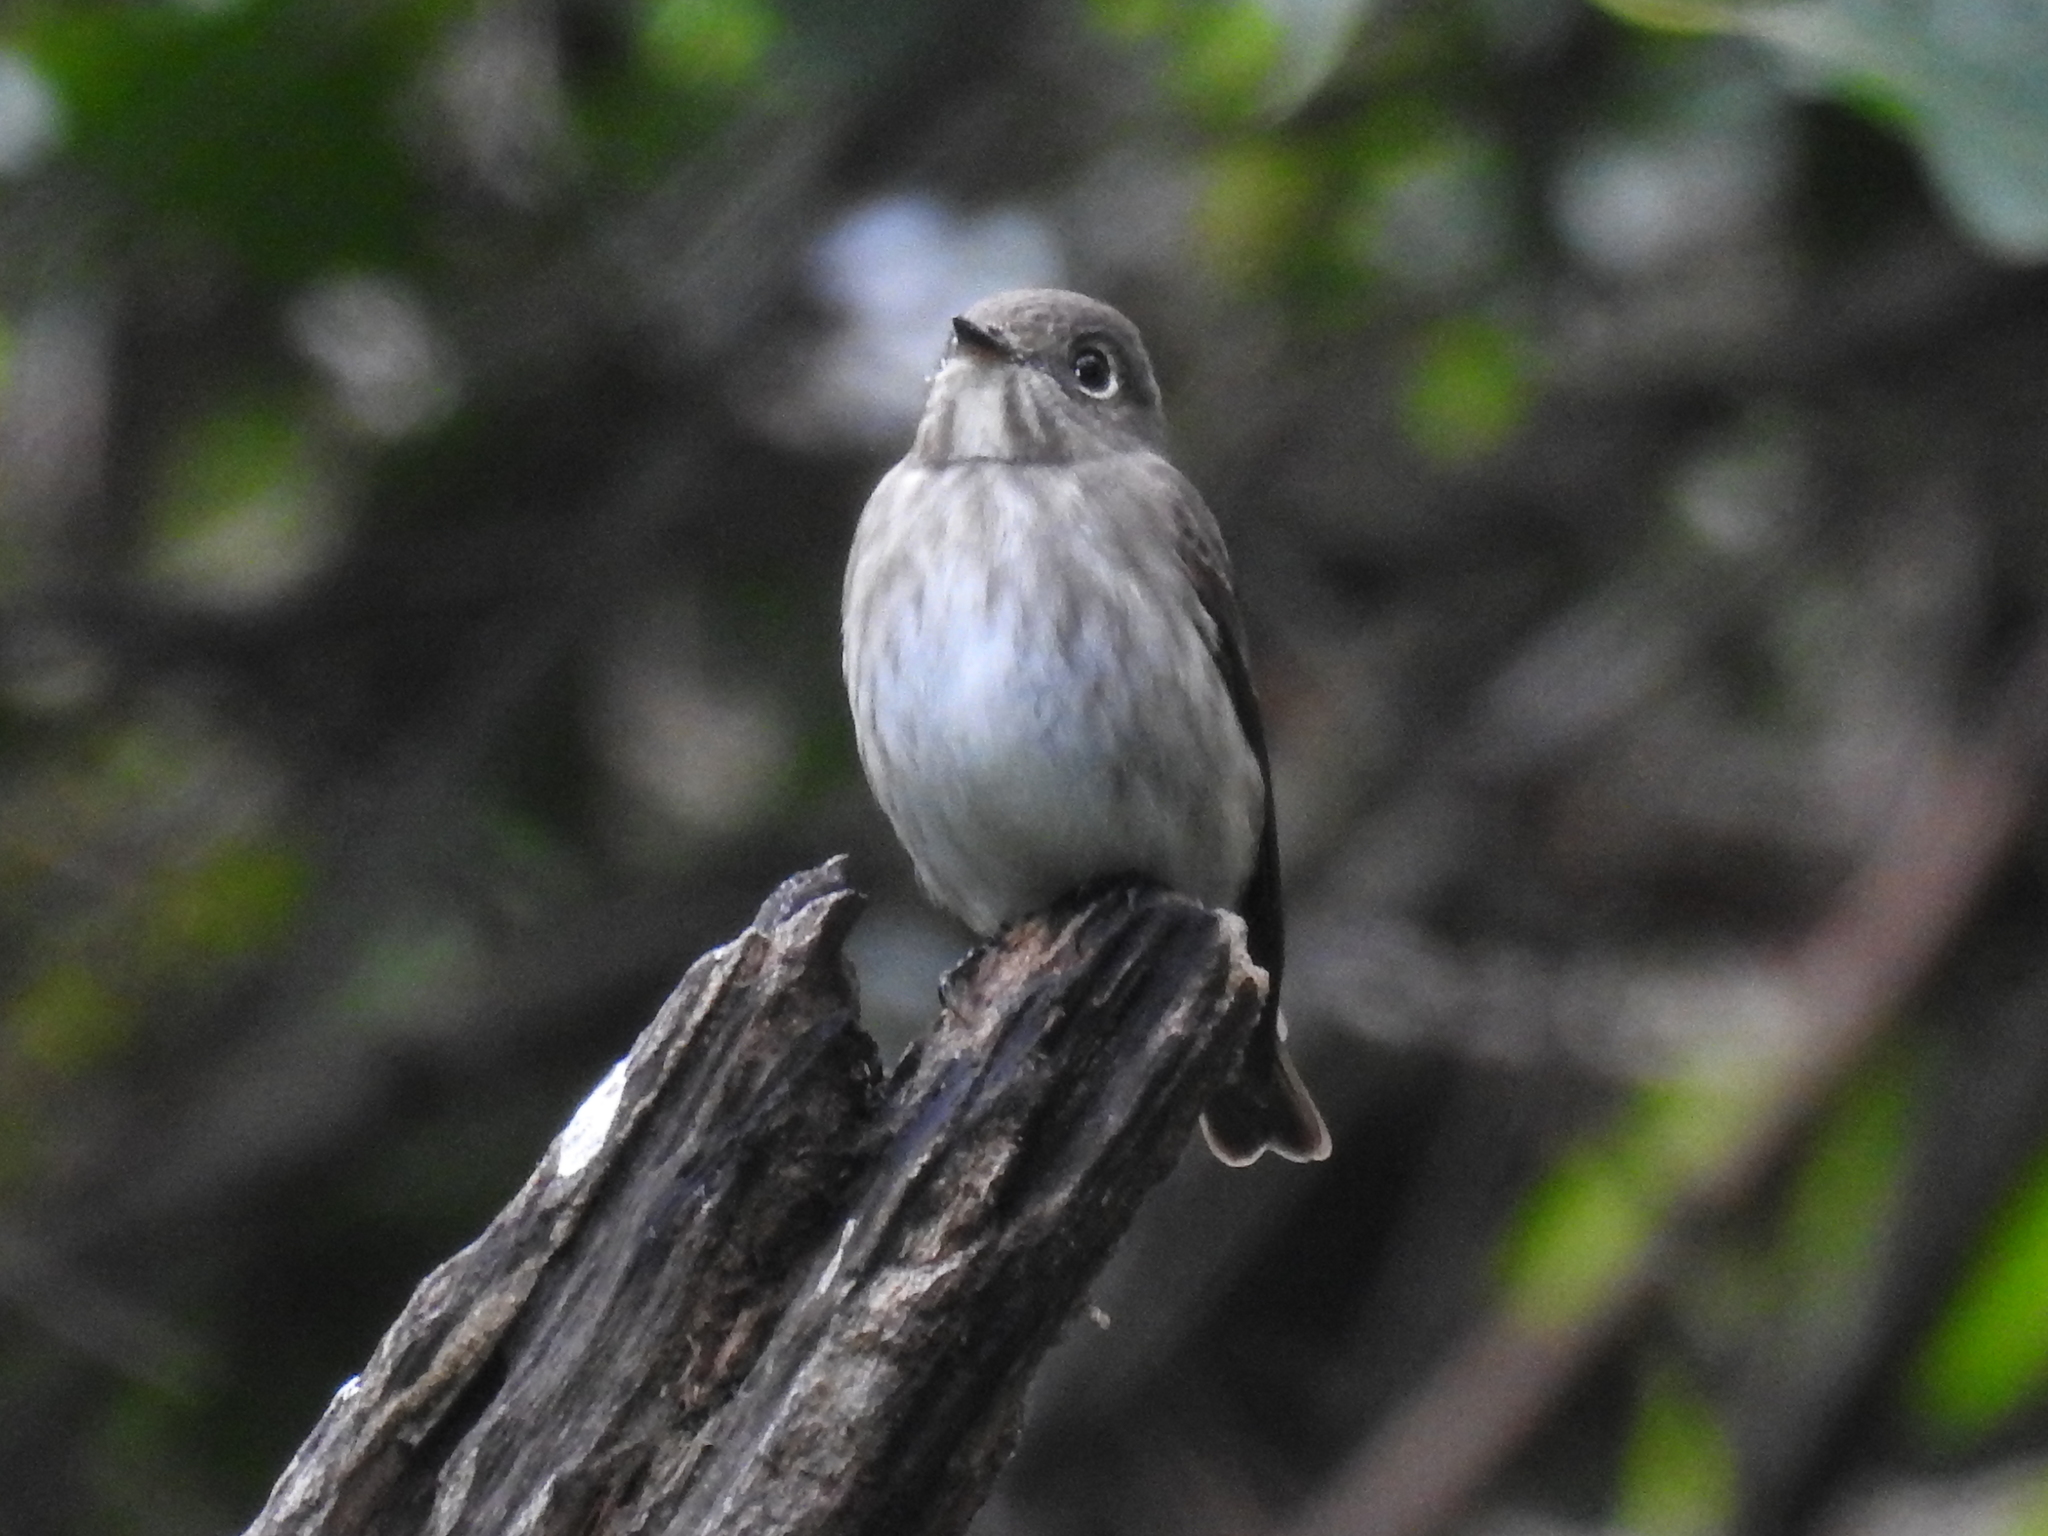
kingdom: Animalia
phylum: Chordata
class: Aves
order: Passeriformes
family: Muscicapidae
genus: Muscicapa
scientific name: Muscicapa griseisticta
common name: Gray-streaked flycatcher
